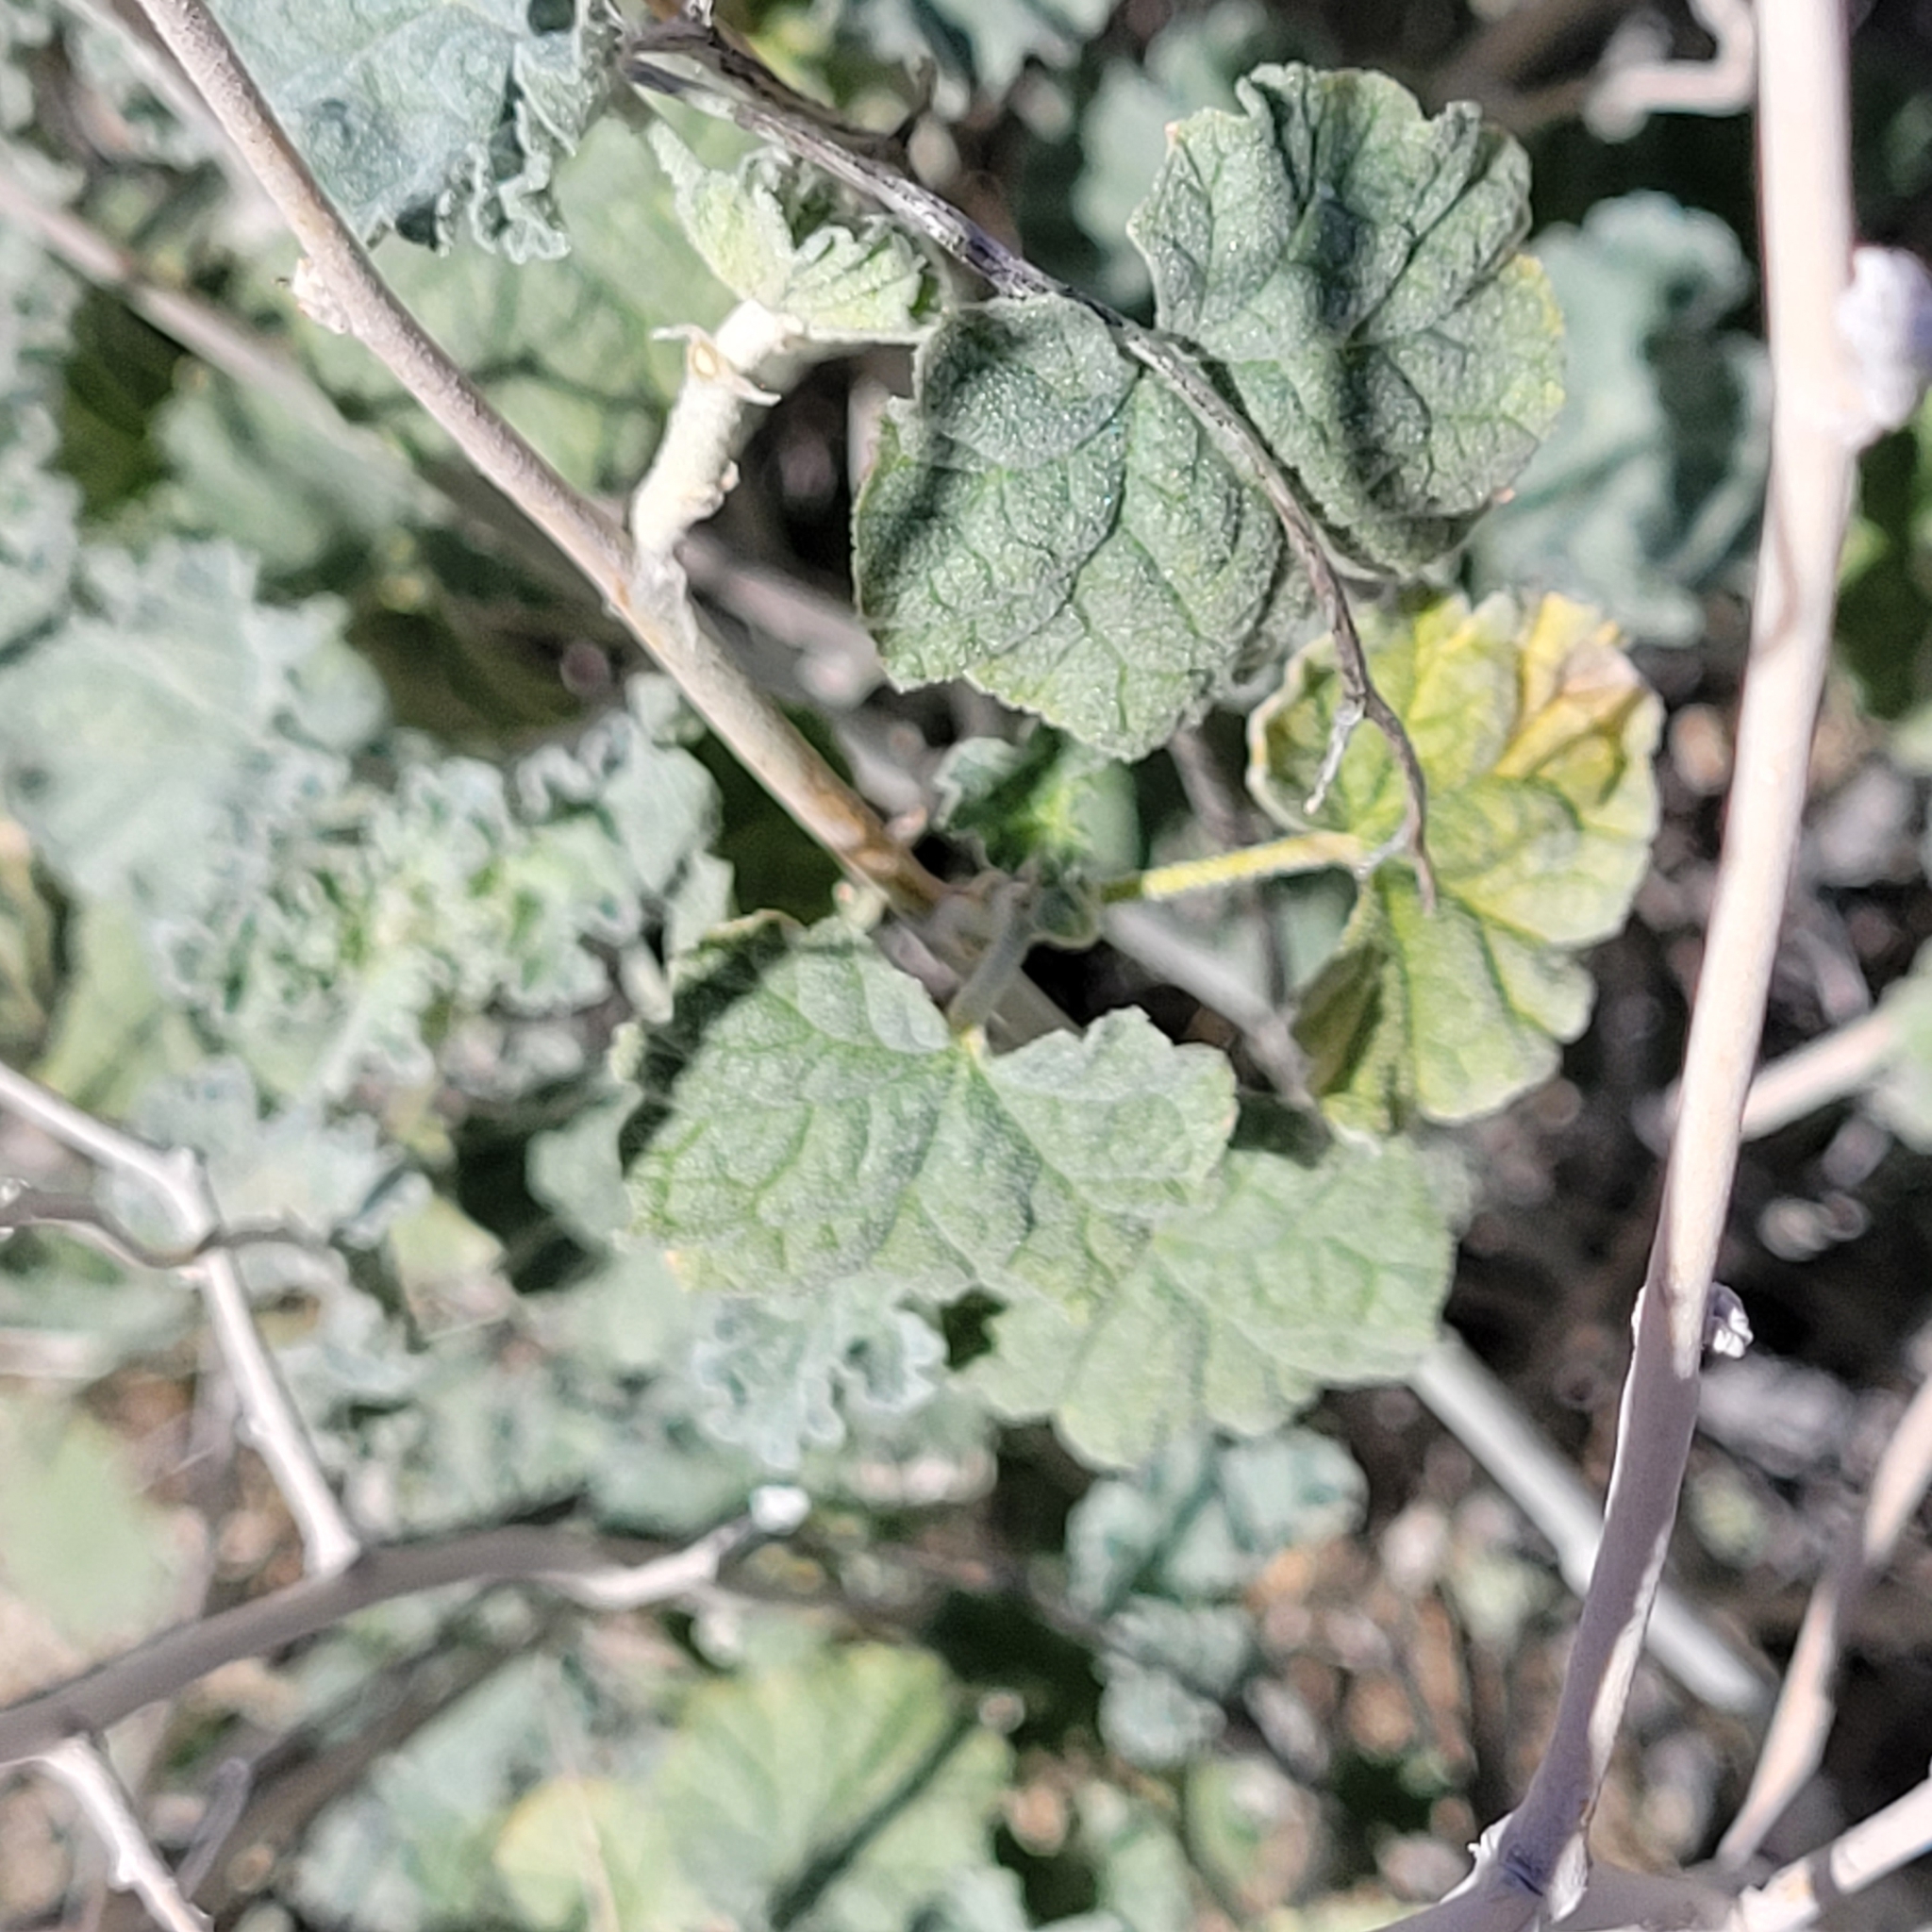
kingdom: Plantae
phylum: Tracheophyta
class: Magnoliopsida
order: Malvales
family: Malvaceae
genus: Sphaeralcea
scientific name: Sphaeralcea ambigua
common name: Apricot globe-mallow
